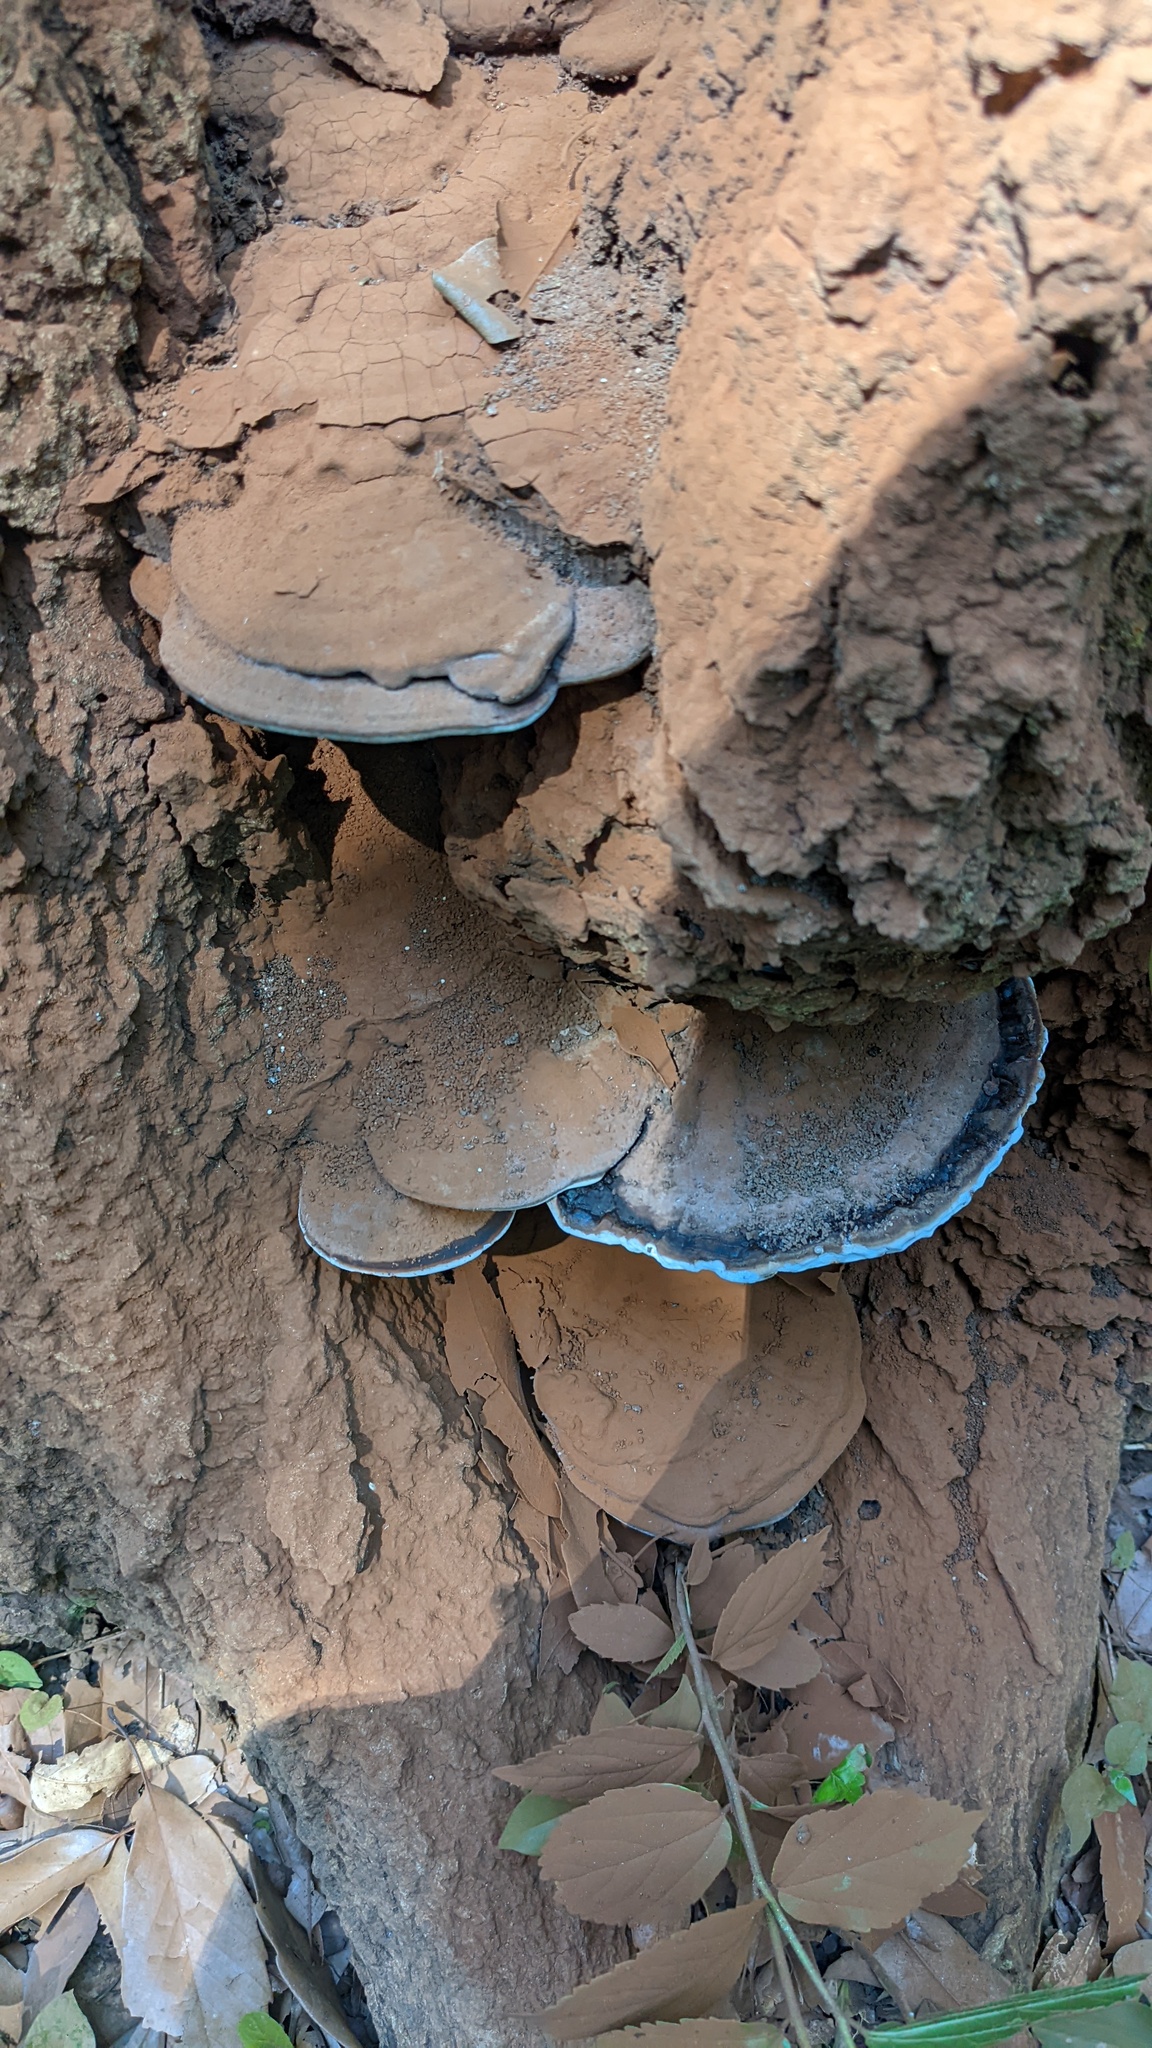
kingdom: Fungi
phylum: Basidiomycota
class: Agaricomycetes
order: Polyporales
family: Polyporaceae
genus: Ganoderma
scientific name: Ganoderma applanatum
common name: Artist's bracket
